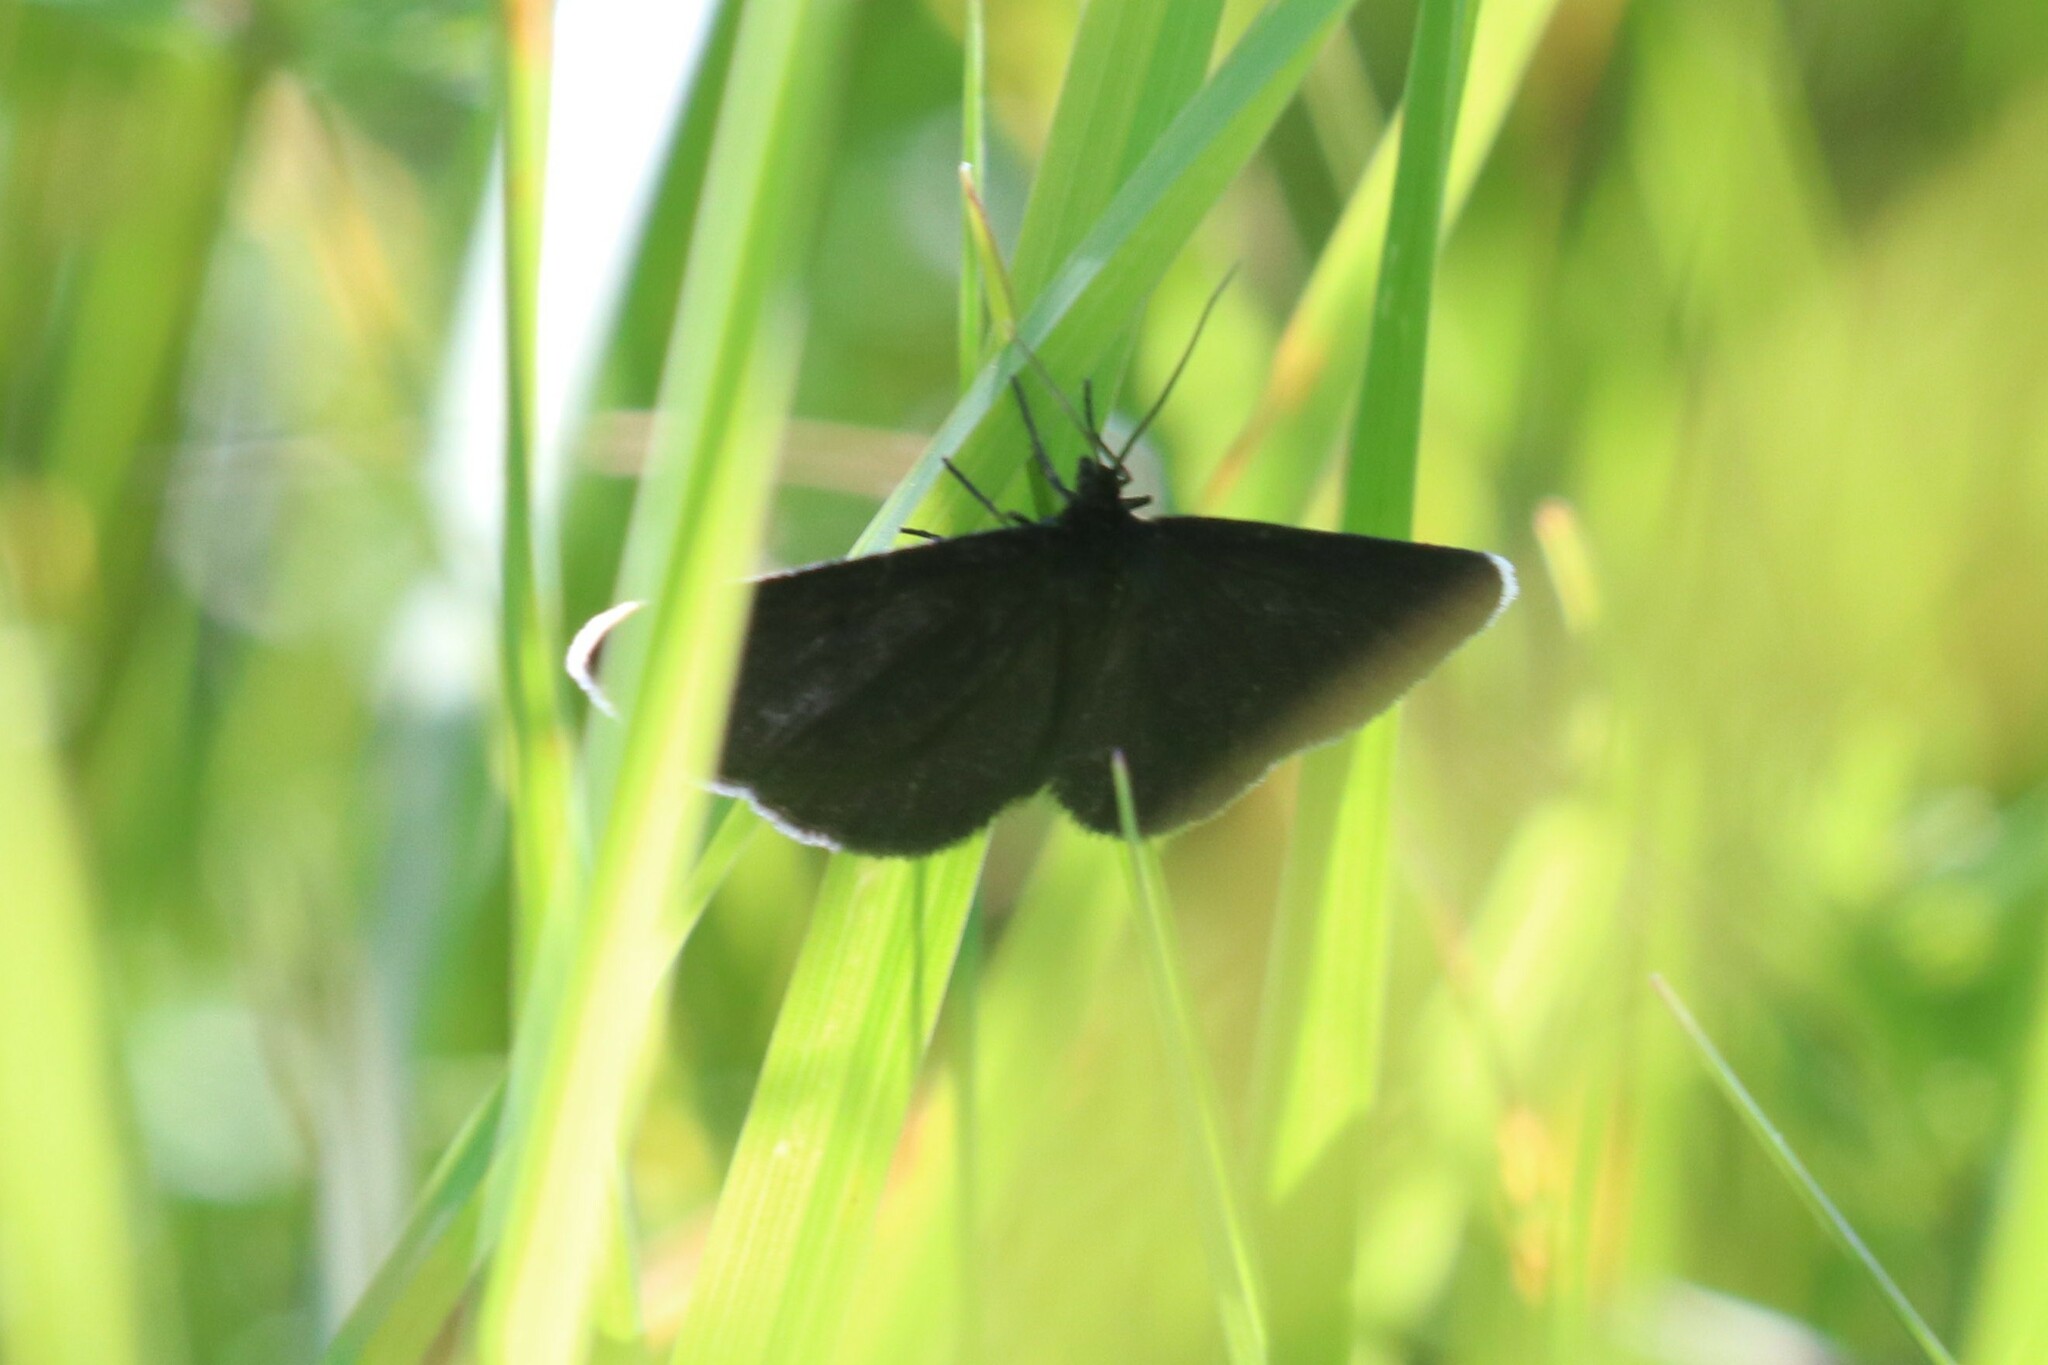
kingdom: Animalia
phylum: Arthropoda
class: Insecta
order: Lepidoptera
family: Geometridae
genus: Odezia
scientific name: Odezia atrata
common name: Chimney sweeper
